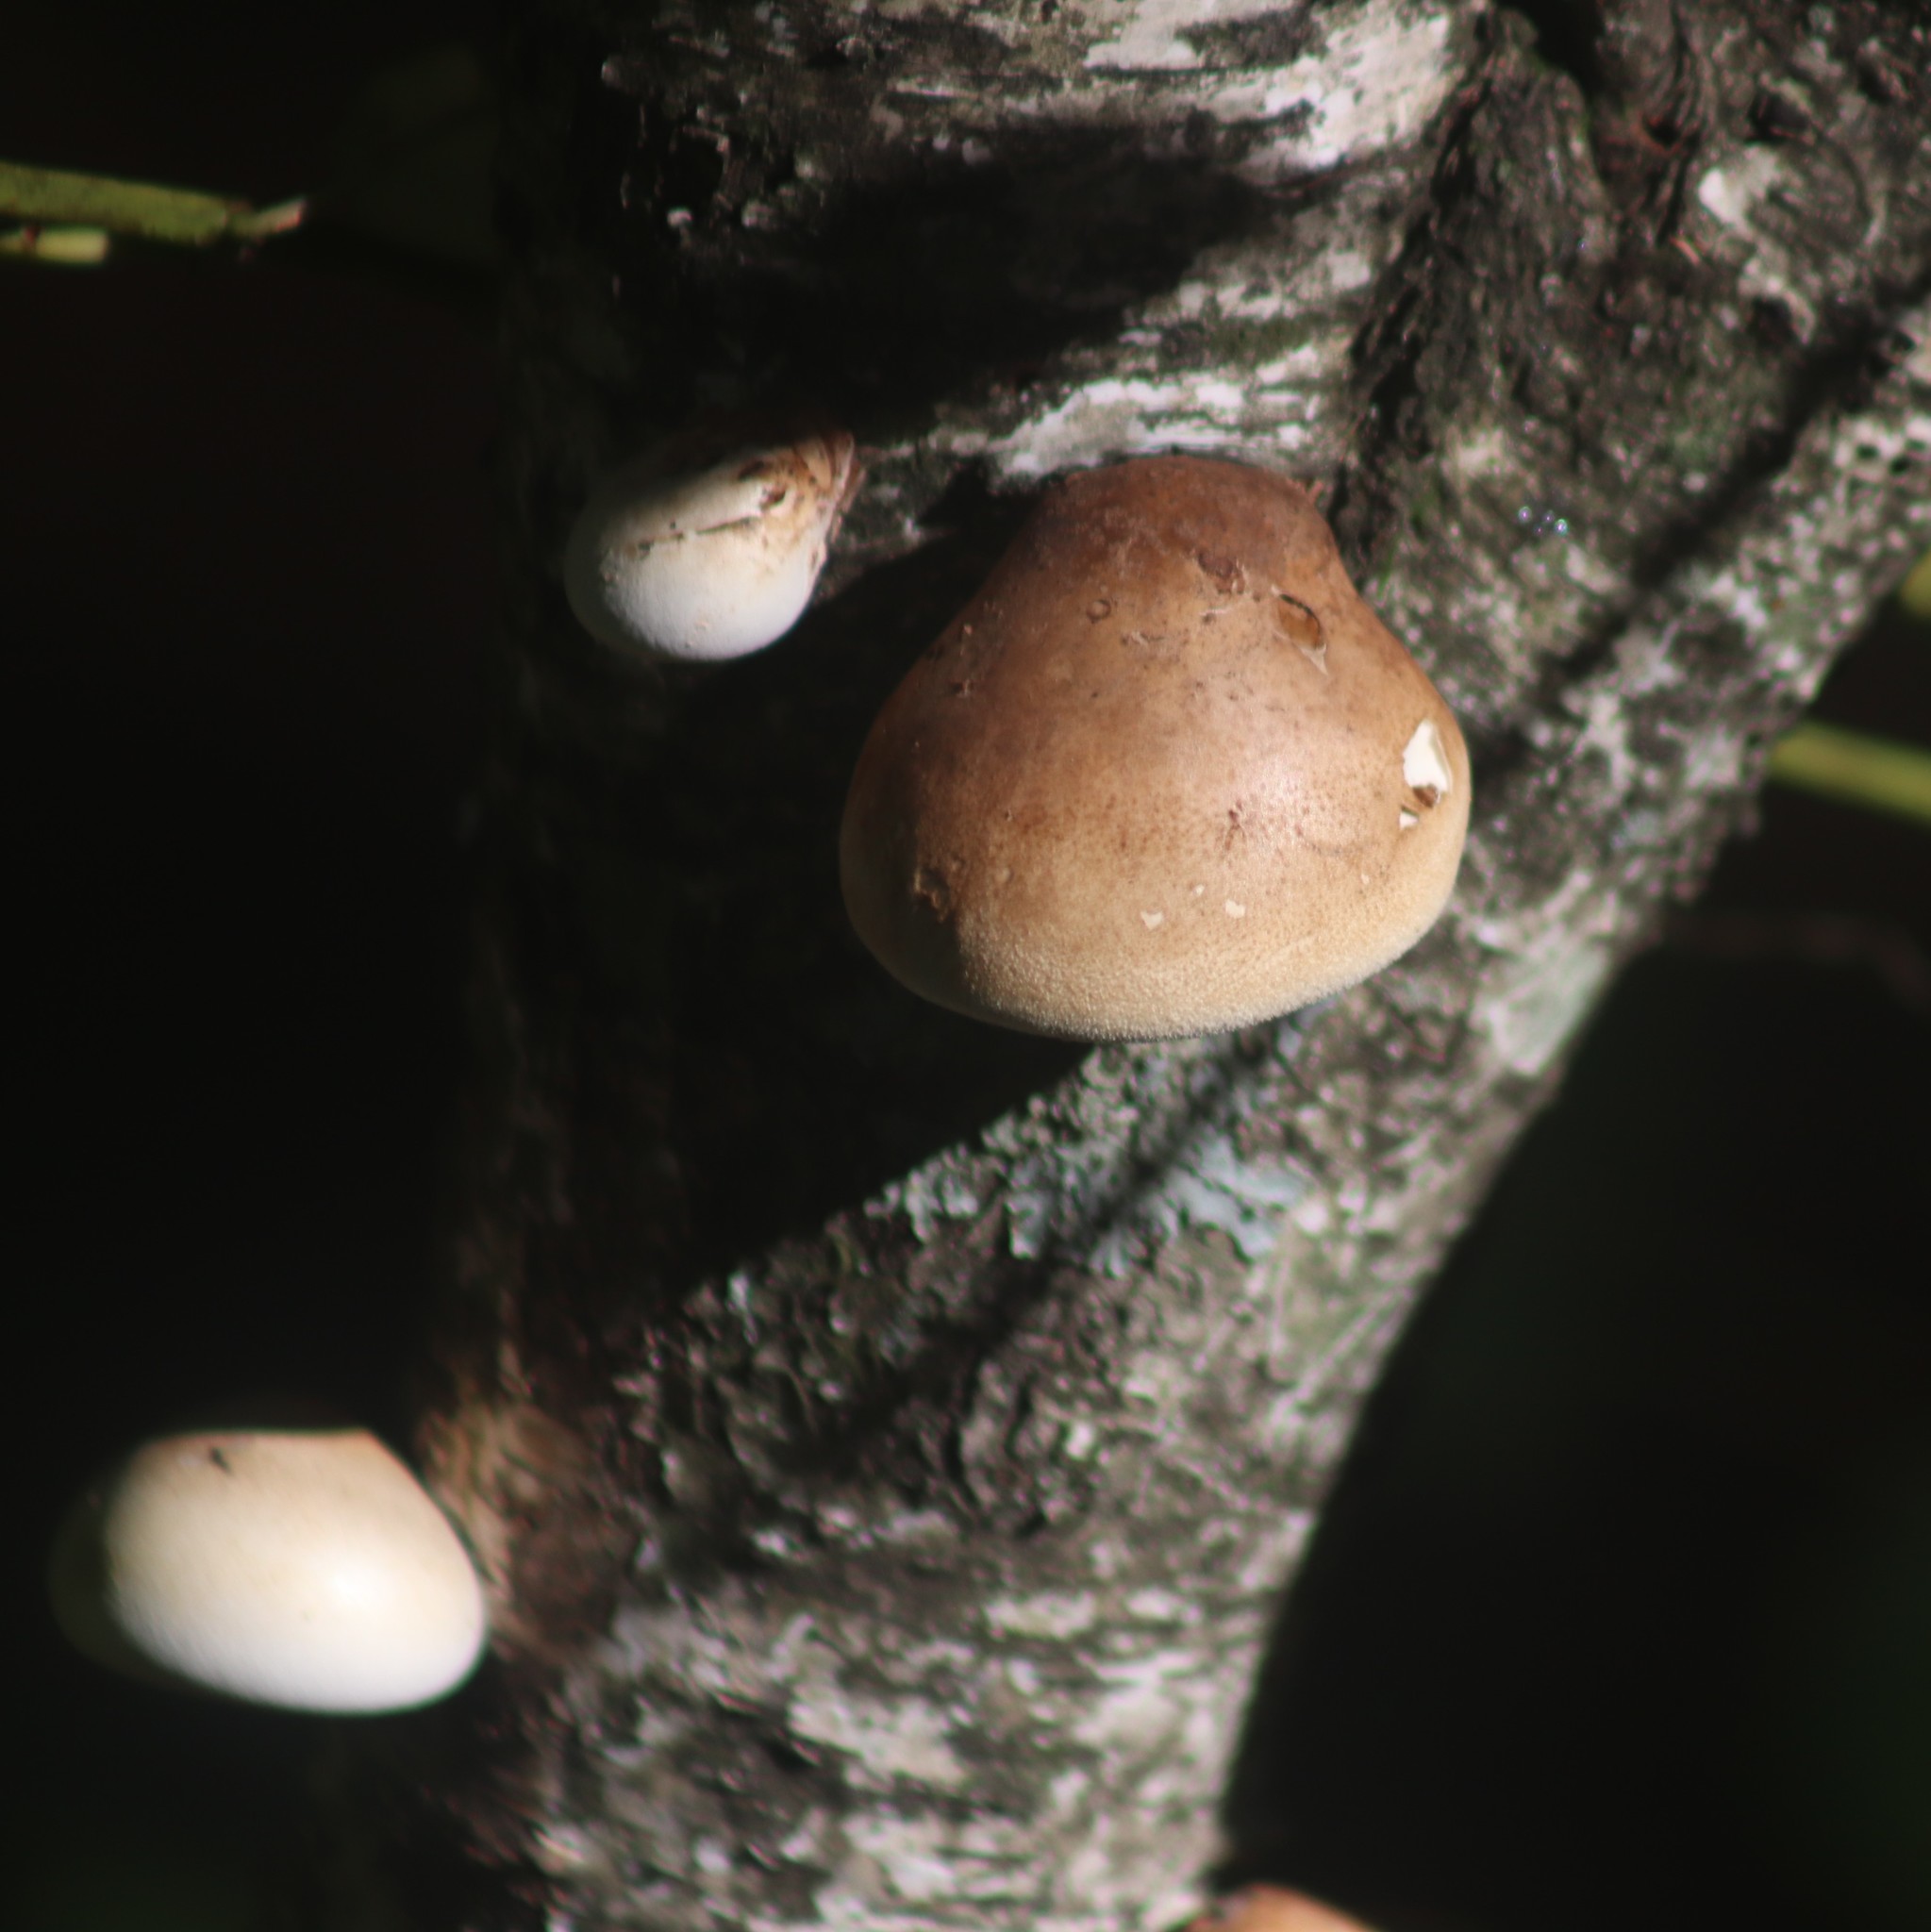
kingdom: Fungi
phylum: Basidiomycota
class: Agaricomycetes
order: Polyporales
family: Fomitopsidaceae
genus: Fomitopsis
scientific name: Fomitopsis betulina
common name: Birch polypore
